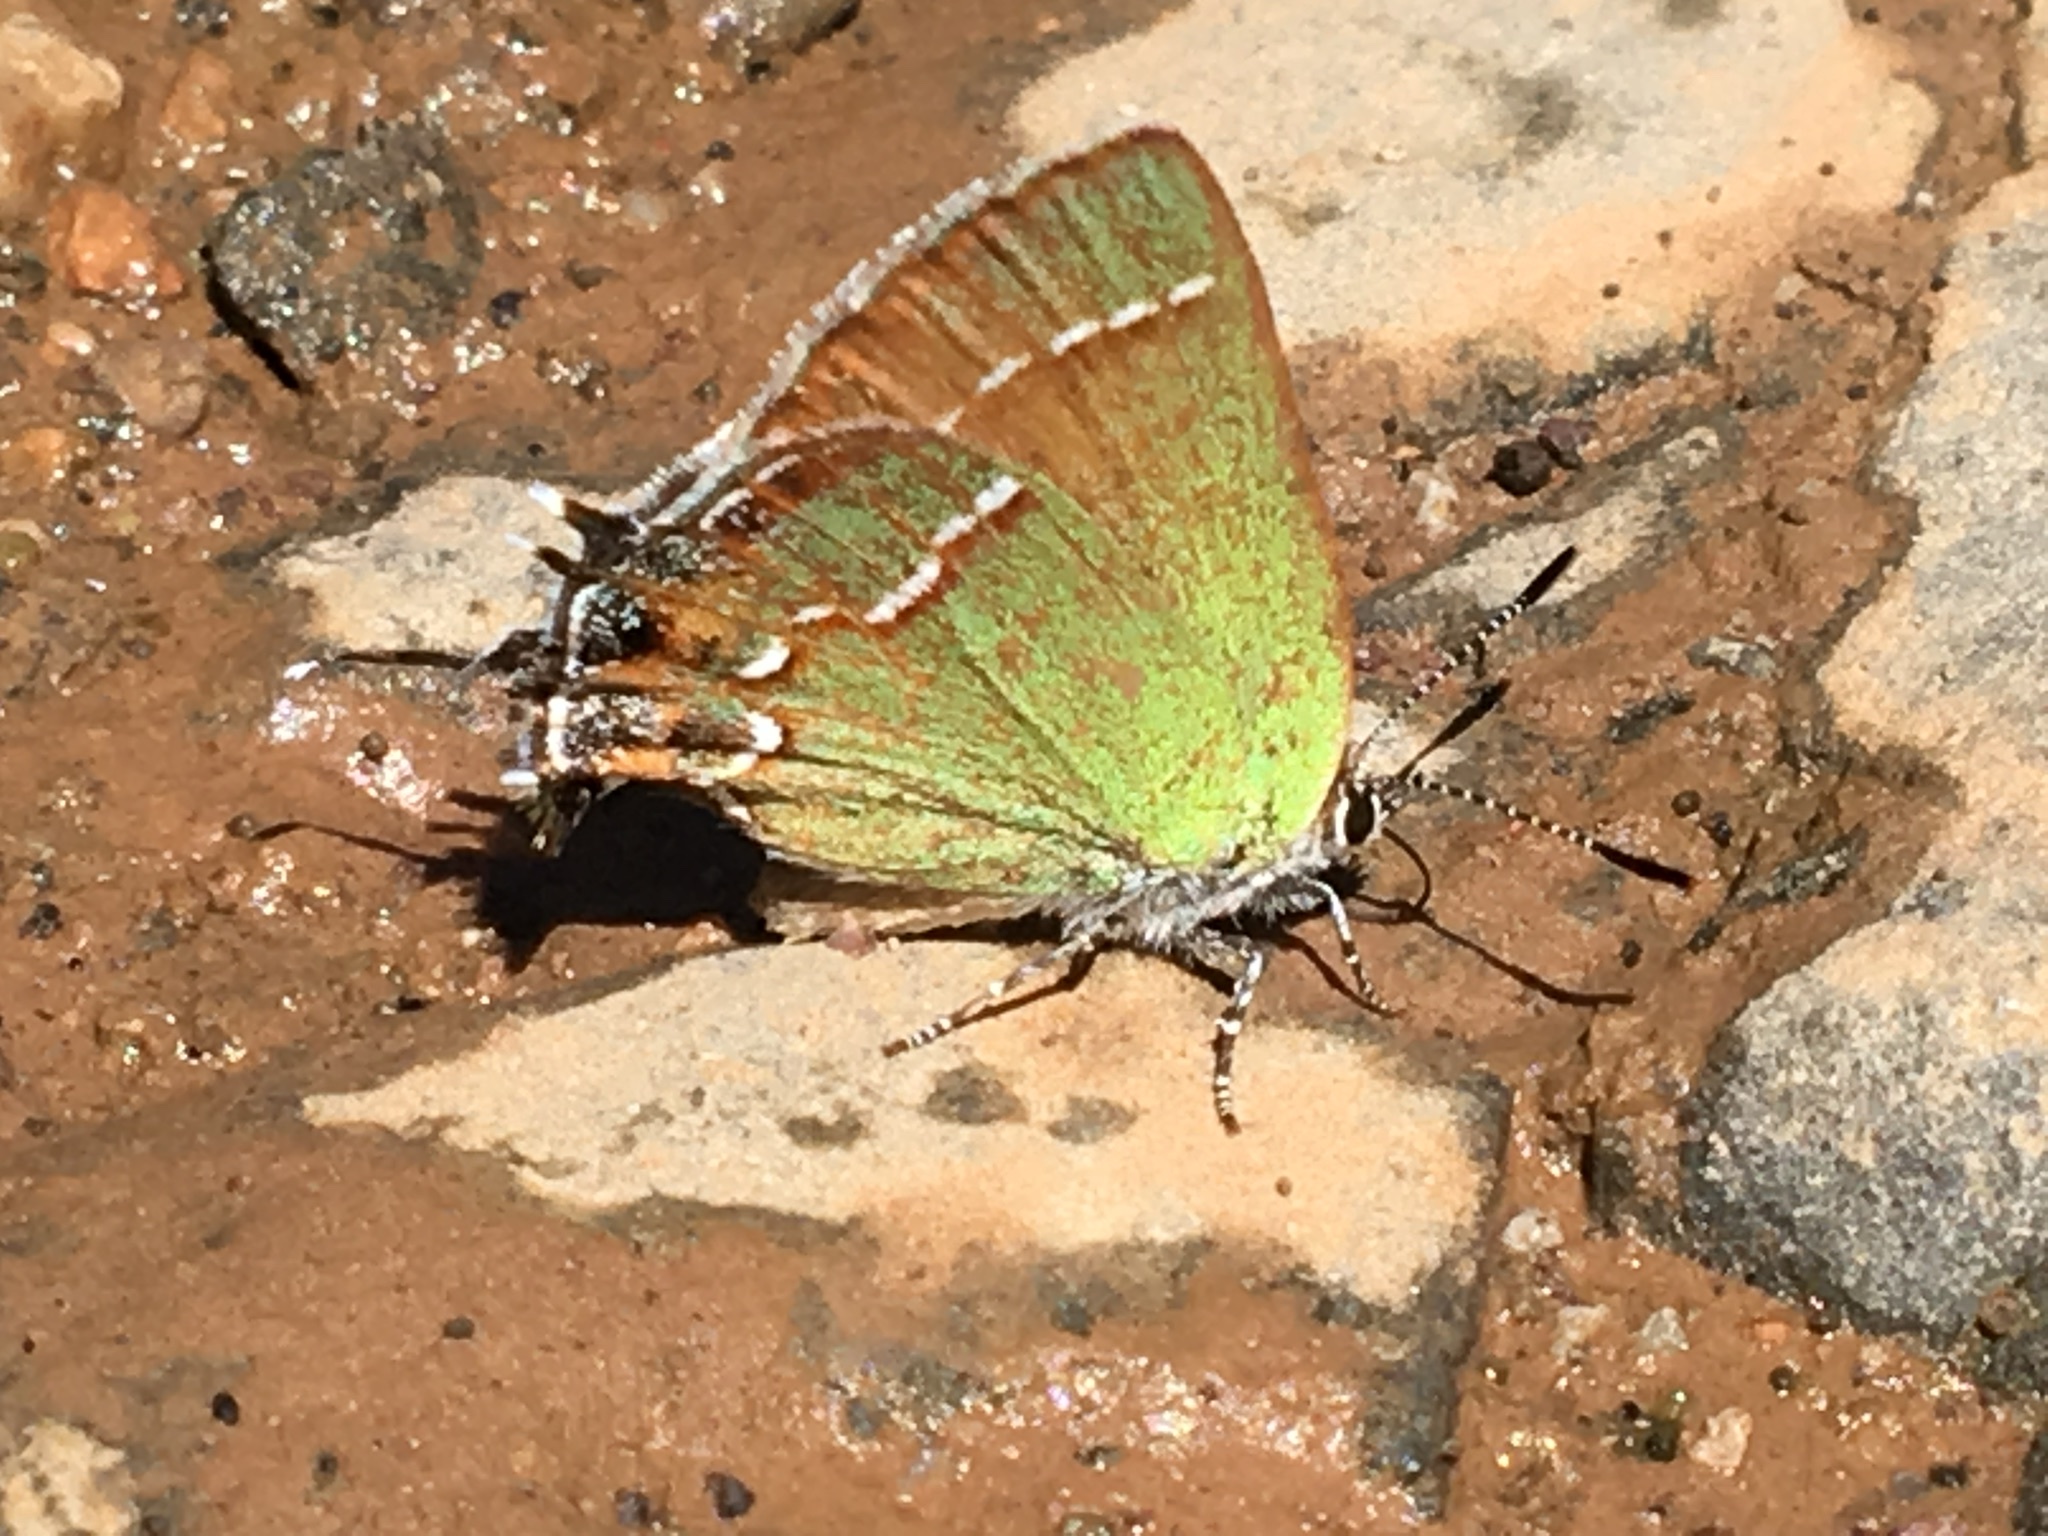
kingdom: Animalia
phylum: Arthropoda
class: Insecta
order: Lepidoptera
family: Lycaenidae
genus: Mitoura
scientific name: Mitoura gryneus
